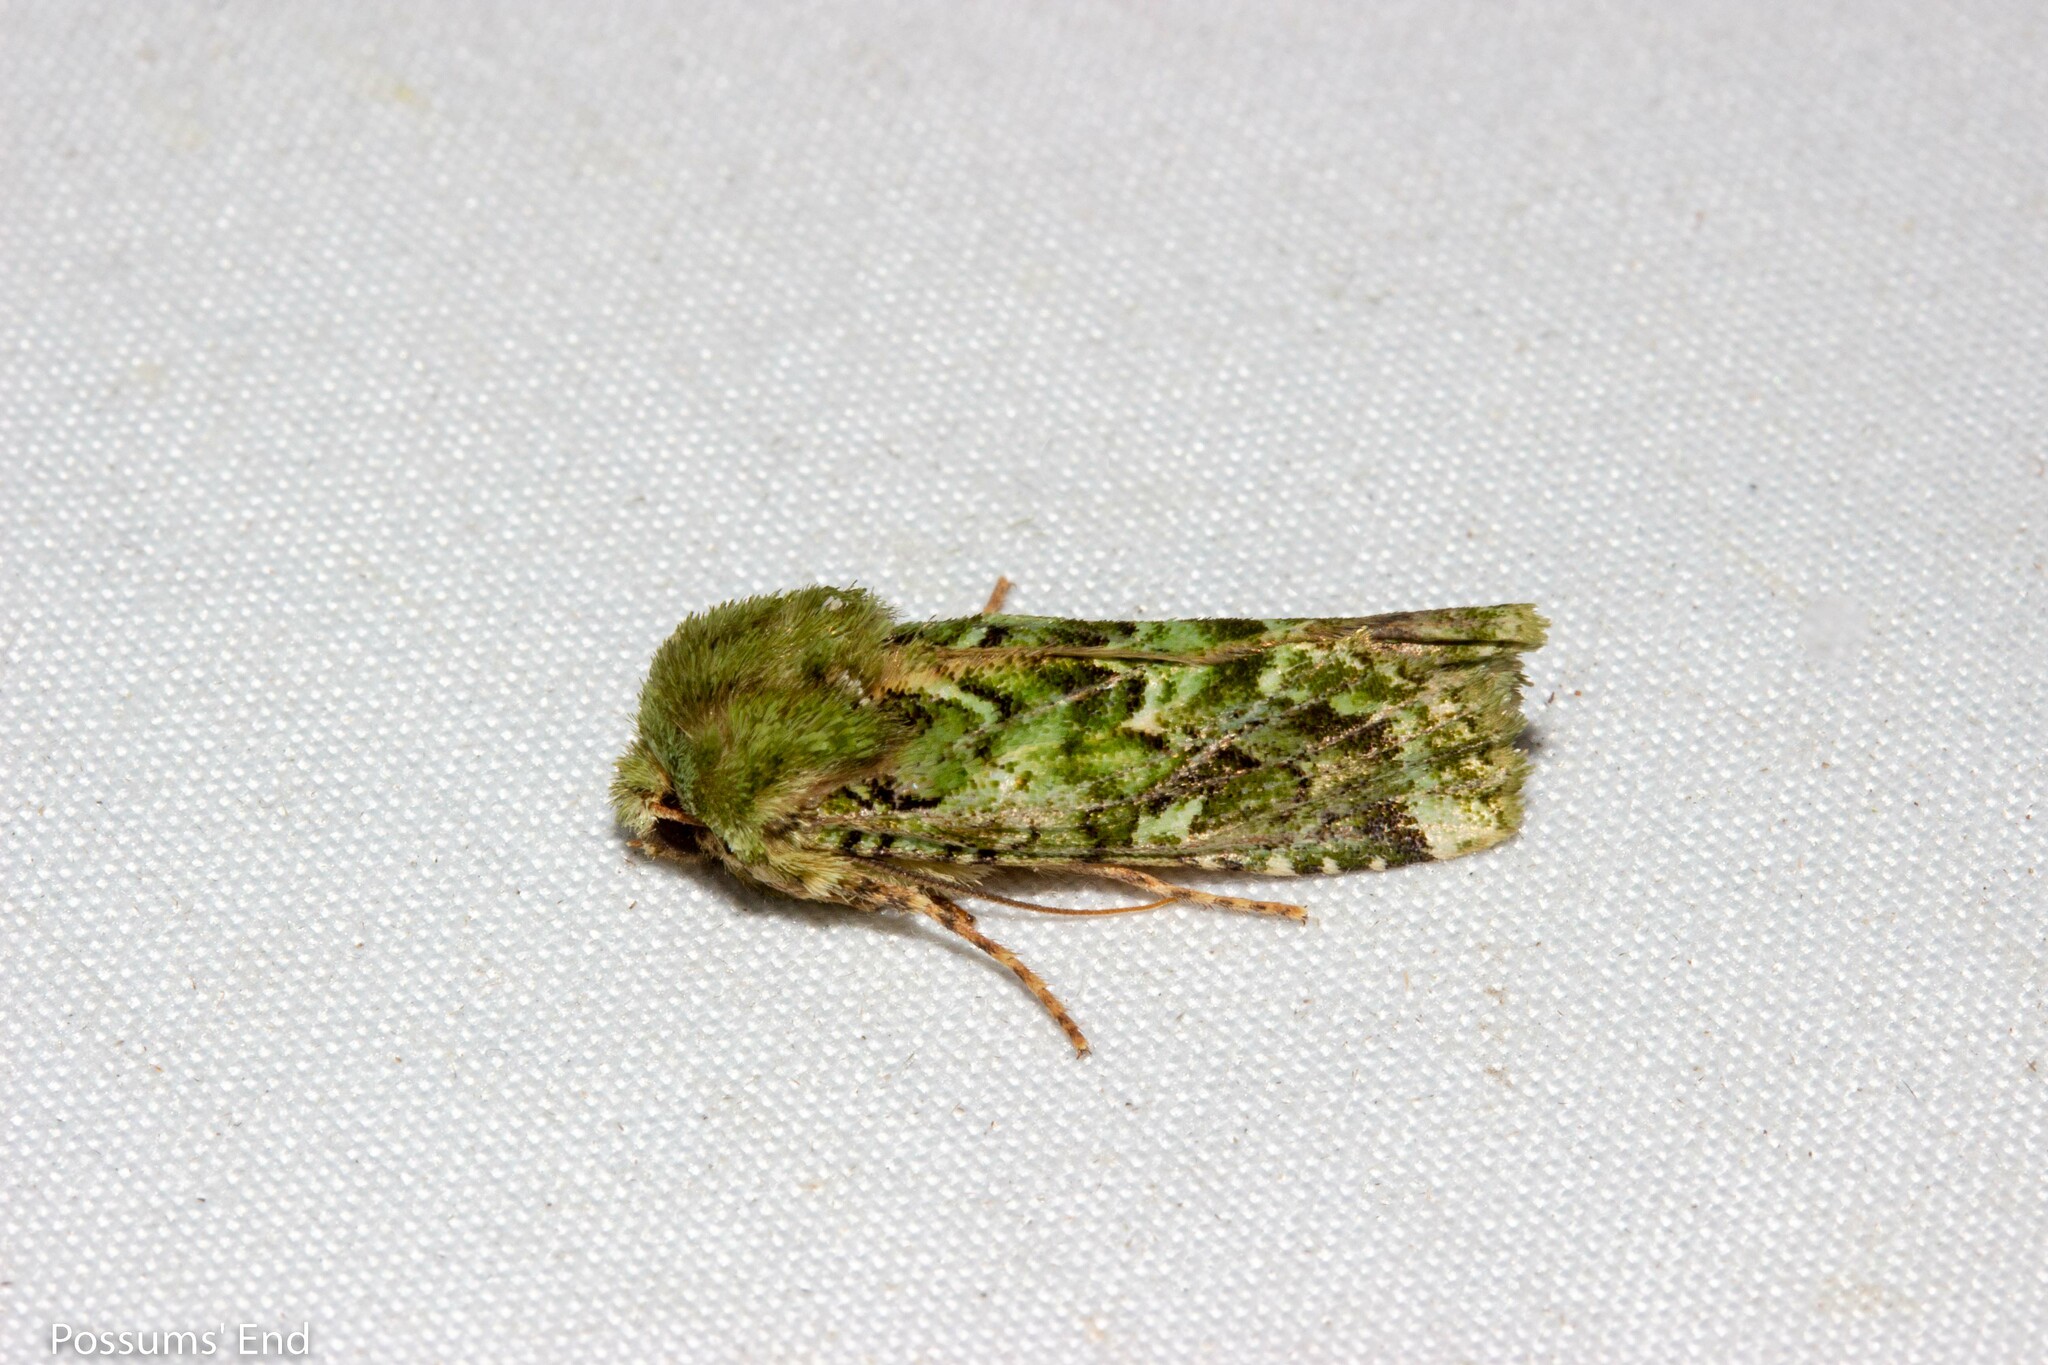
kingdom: Animalia
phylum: Arthropoda
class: Insecta
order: Lepidoptera
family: Noctuidae
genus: Feredayia
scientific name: Feredayia grammosa
